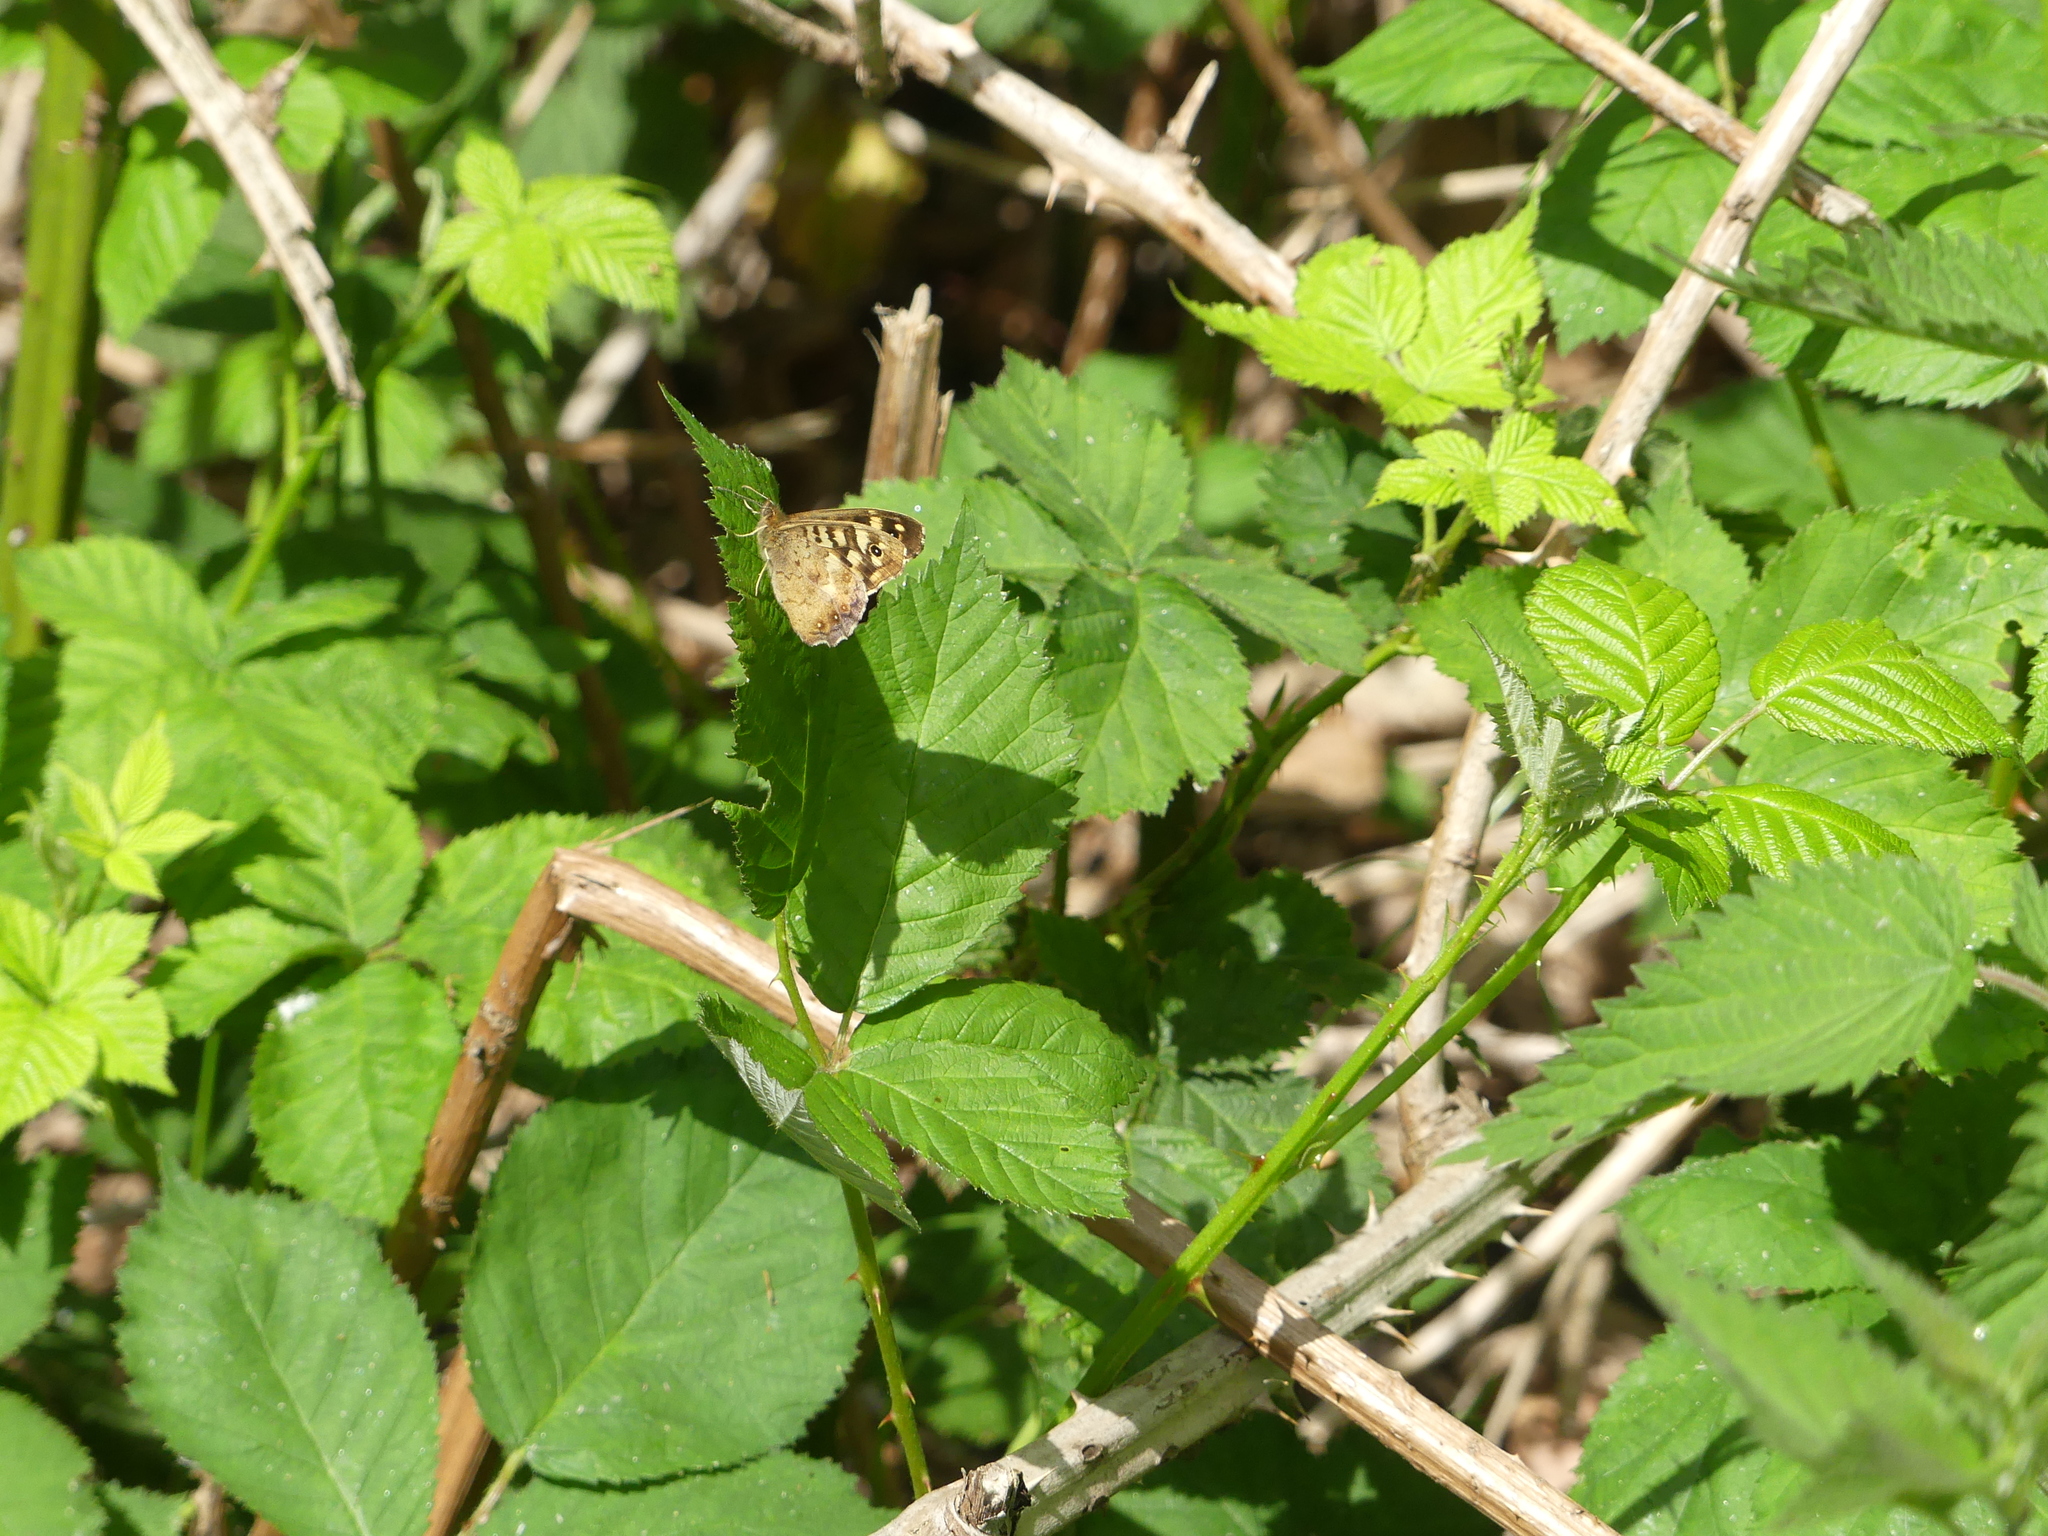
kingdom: Animalia
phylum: Arthropoda
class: Insecta
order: Lepidoptera
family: Nymphalidae
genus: Pararge
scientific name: Pararge aegeria
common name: Speckled wood
